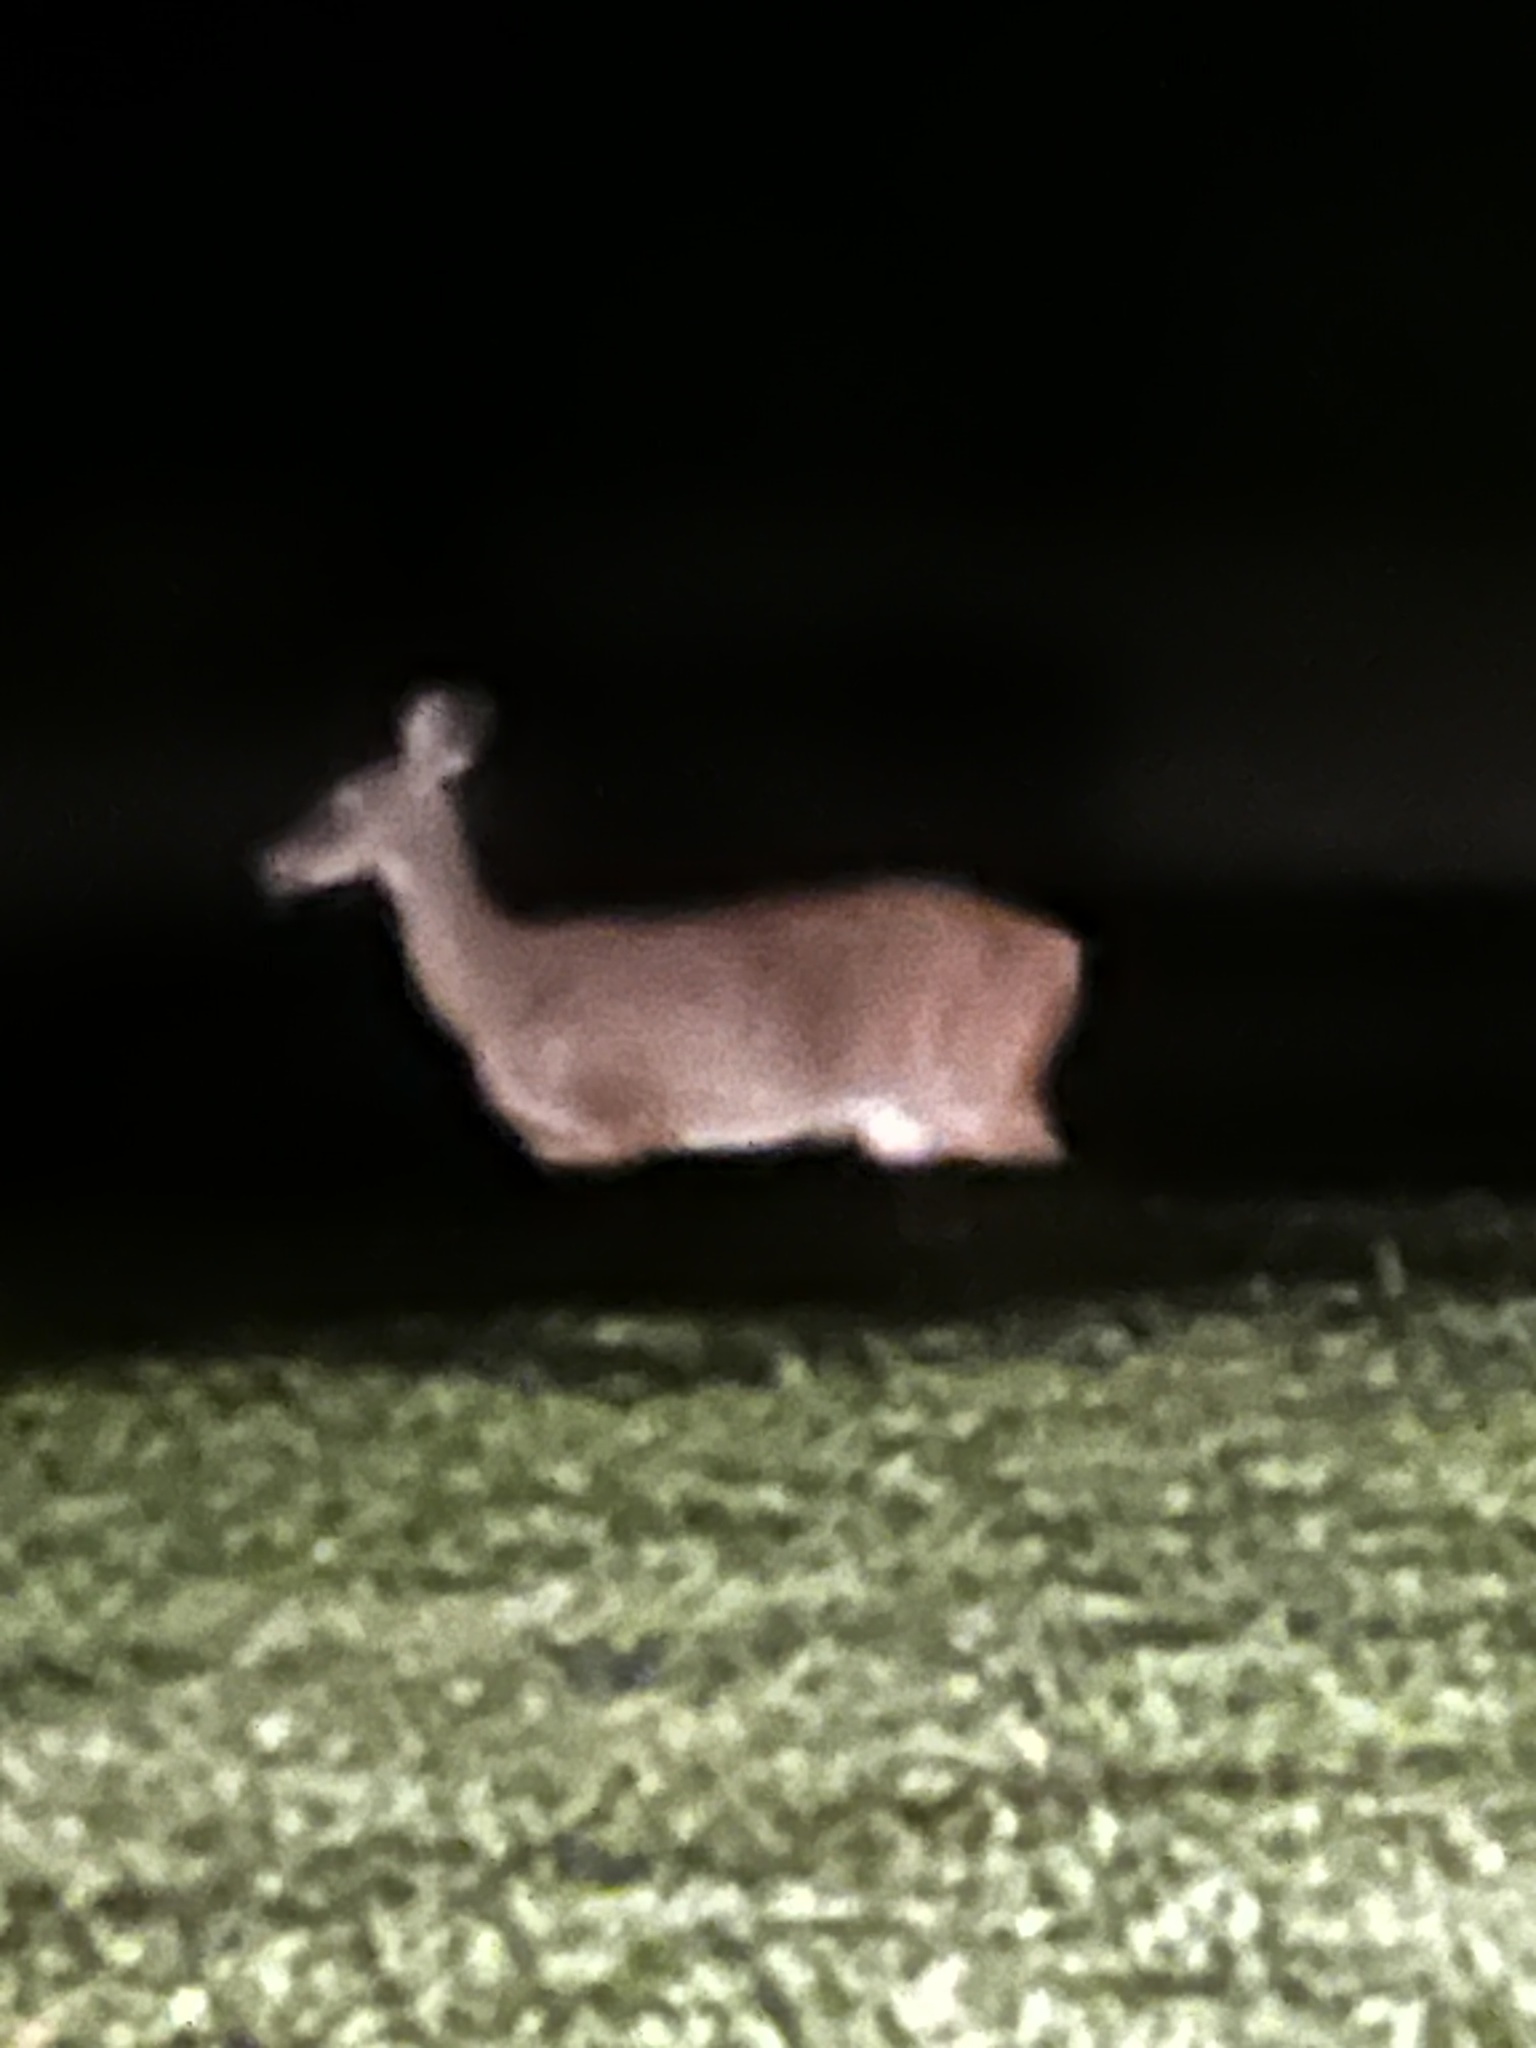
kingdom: Animalia
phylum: Chordata
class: Mammalia
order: Artiodactyla
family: Cervidae
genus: Odocoileus
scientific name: Odocoileus virginianus
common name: White-tailed deer
